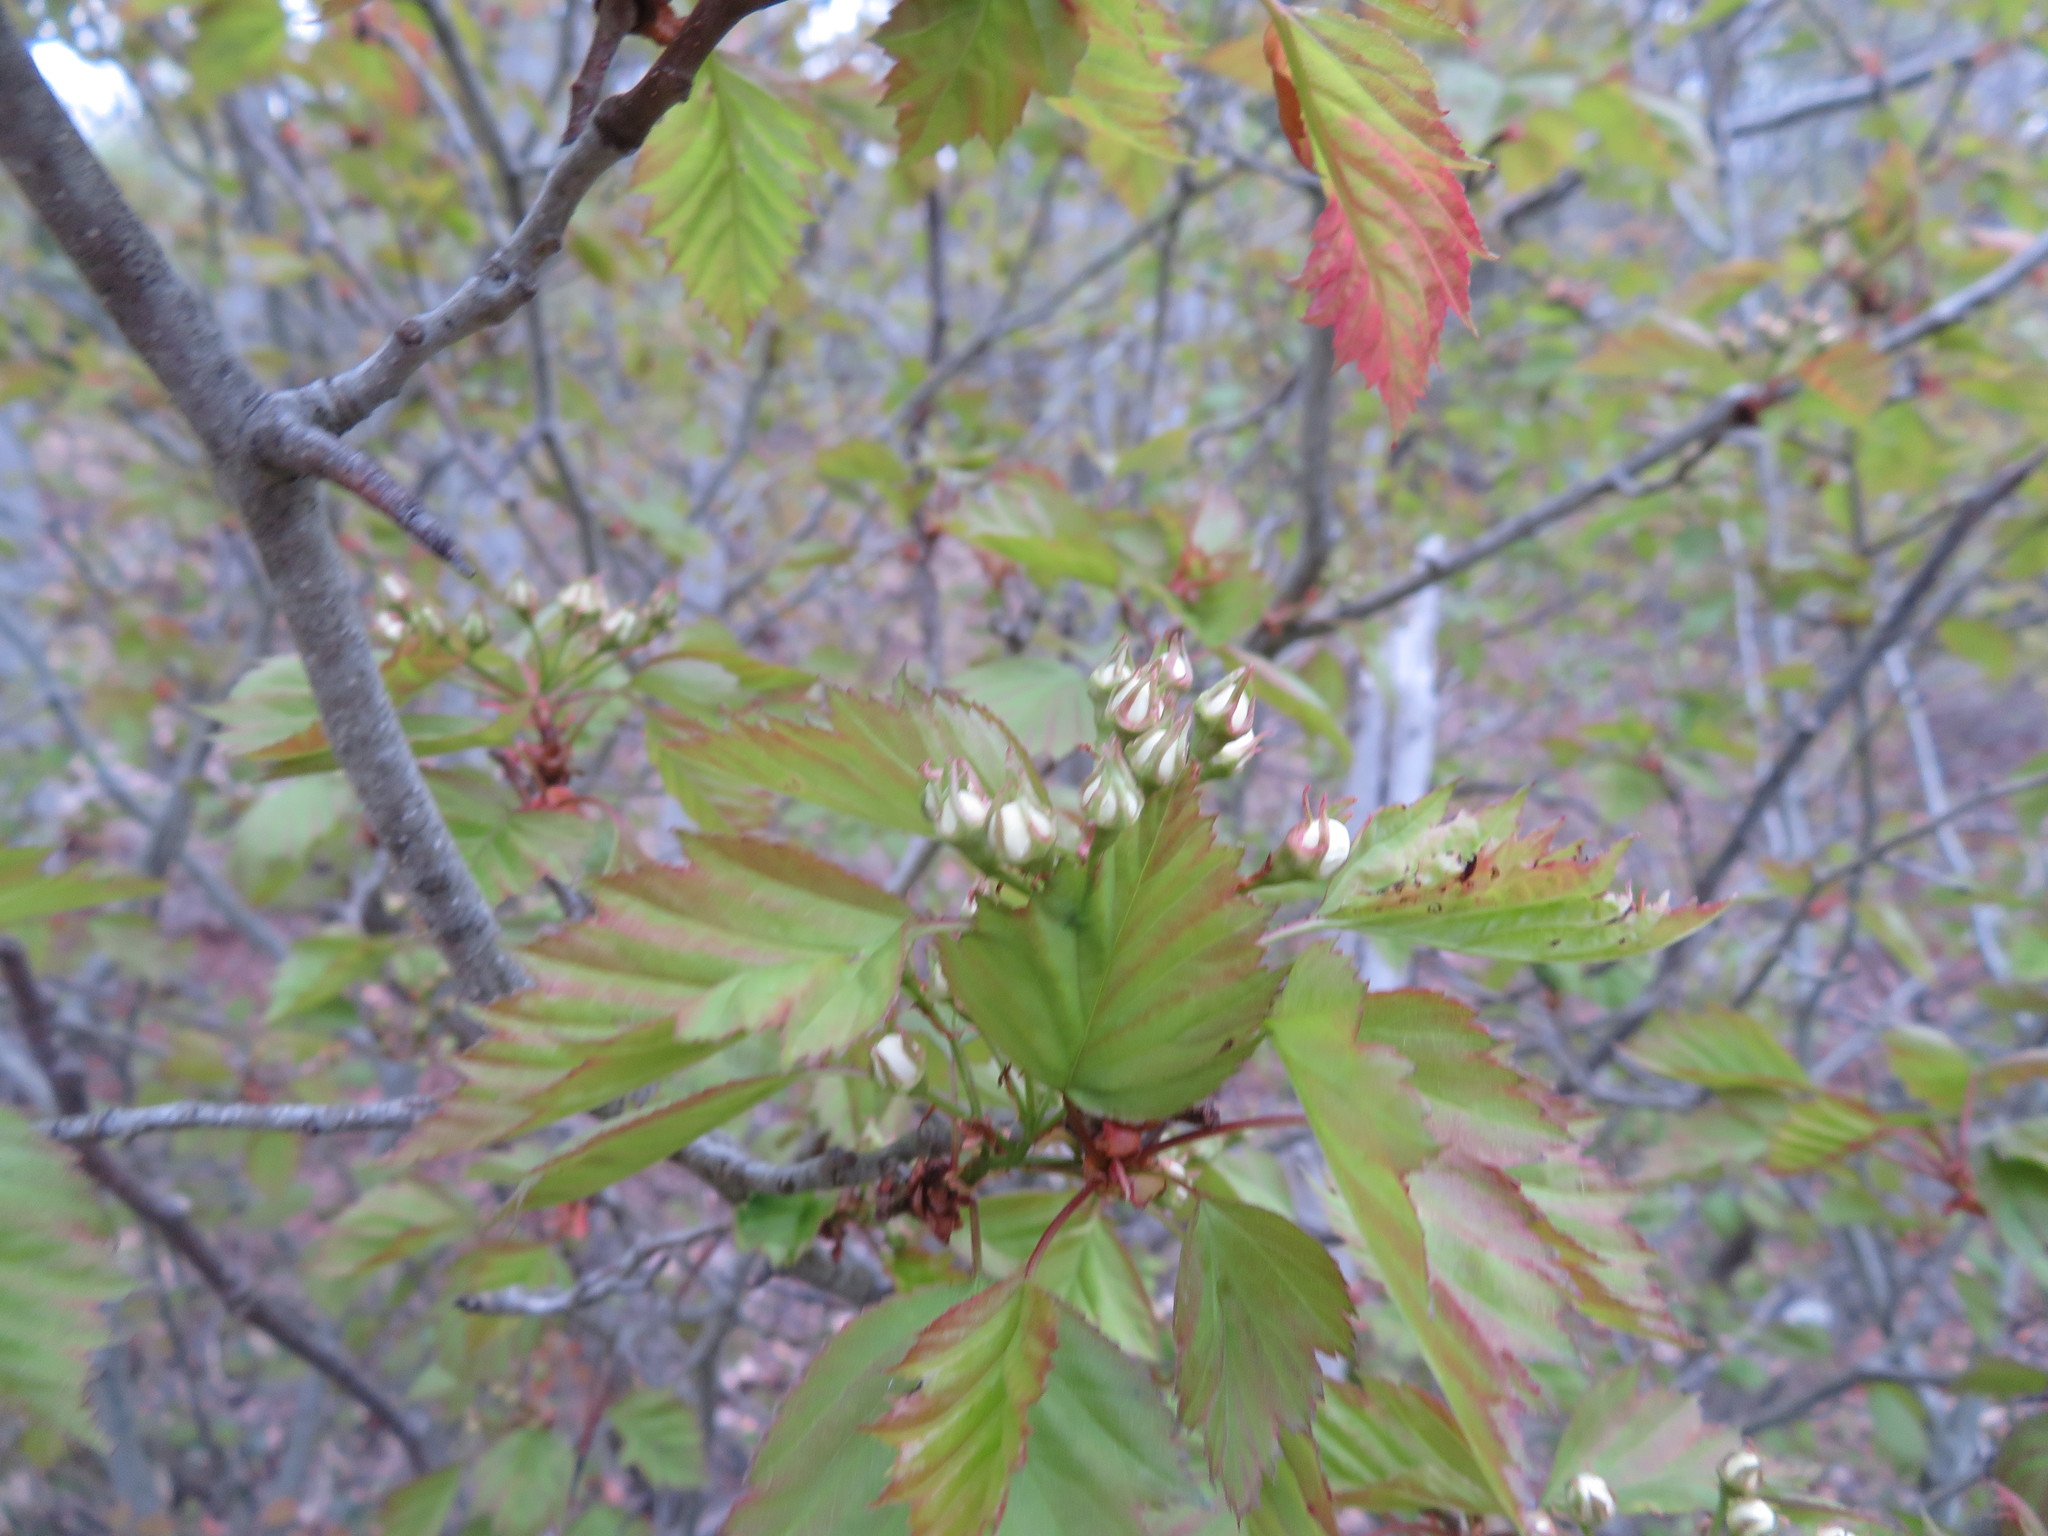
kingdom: Plantae
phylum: Tracheophyta
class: Magnoliopsida
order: Rosales
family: Rosaceae
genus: Crataegus
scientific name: Crataegus monogyna
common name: Hawthorn
